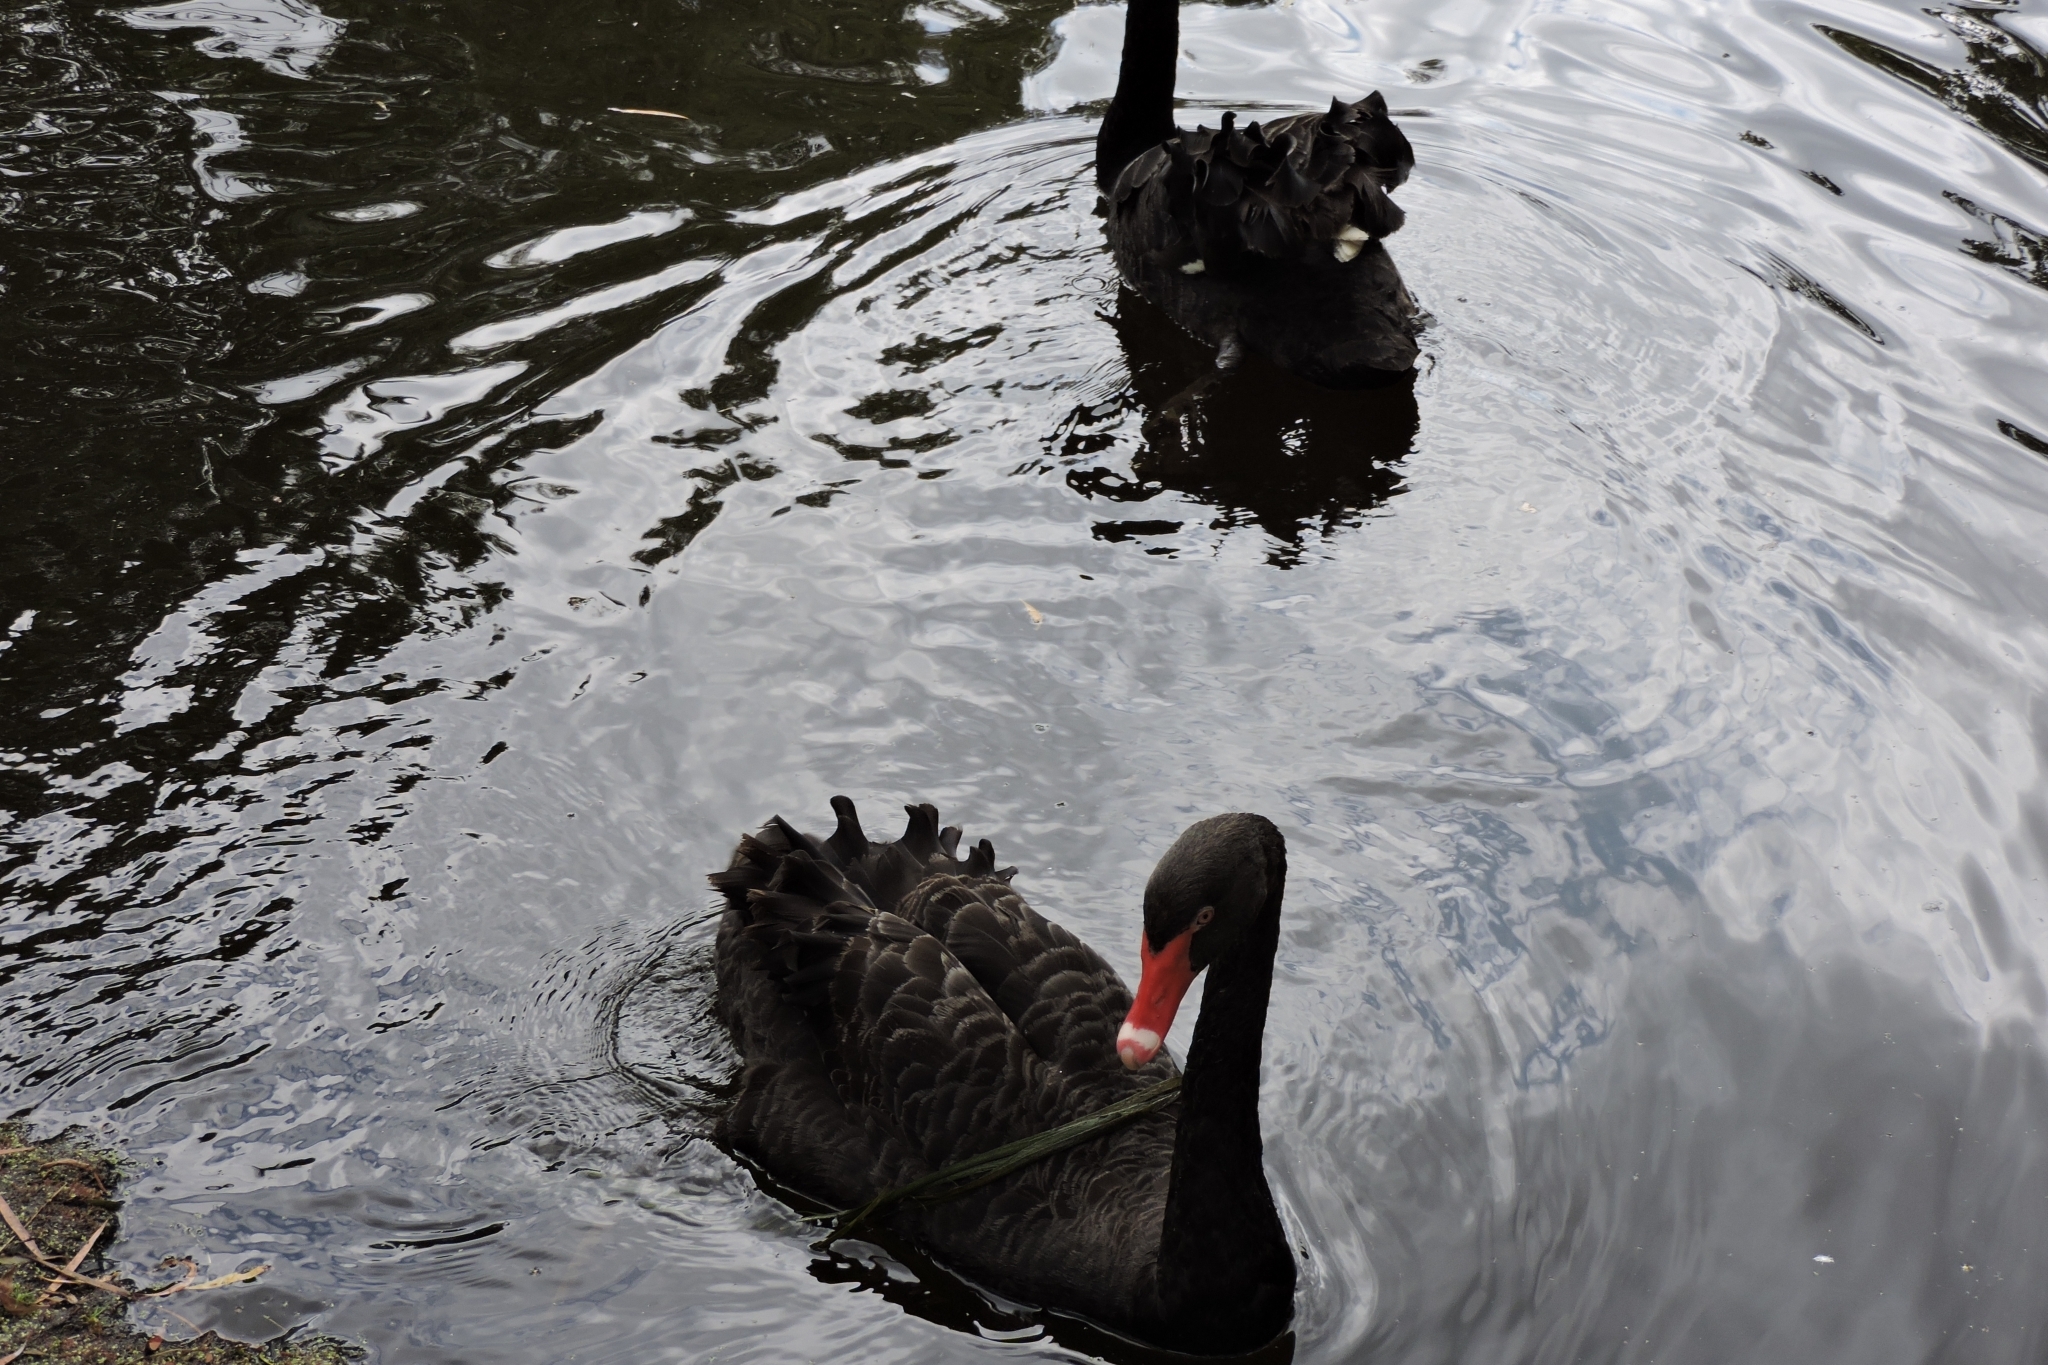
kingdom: Animalia
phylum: Chordata
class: Aves
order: Anseriformes
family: Anatidae
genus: Cygnus
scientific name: Cygnus atratus
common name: Black swan
